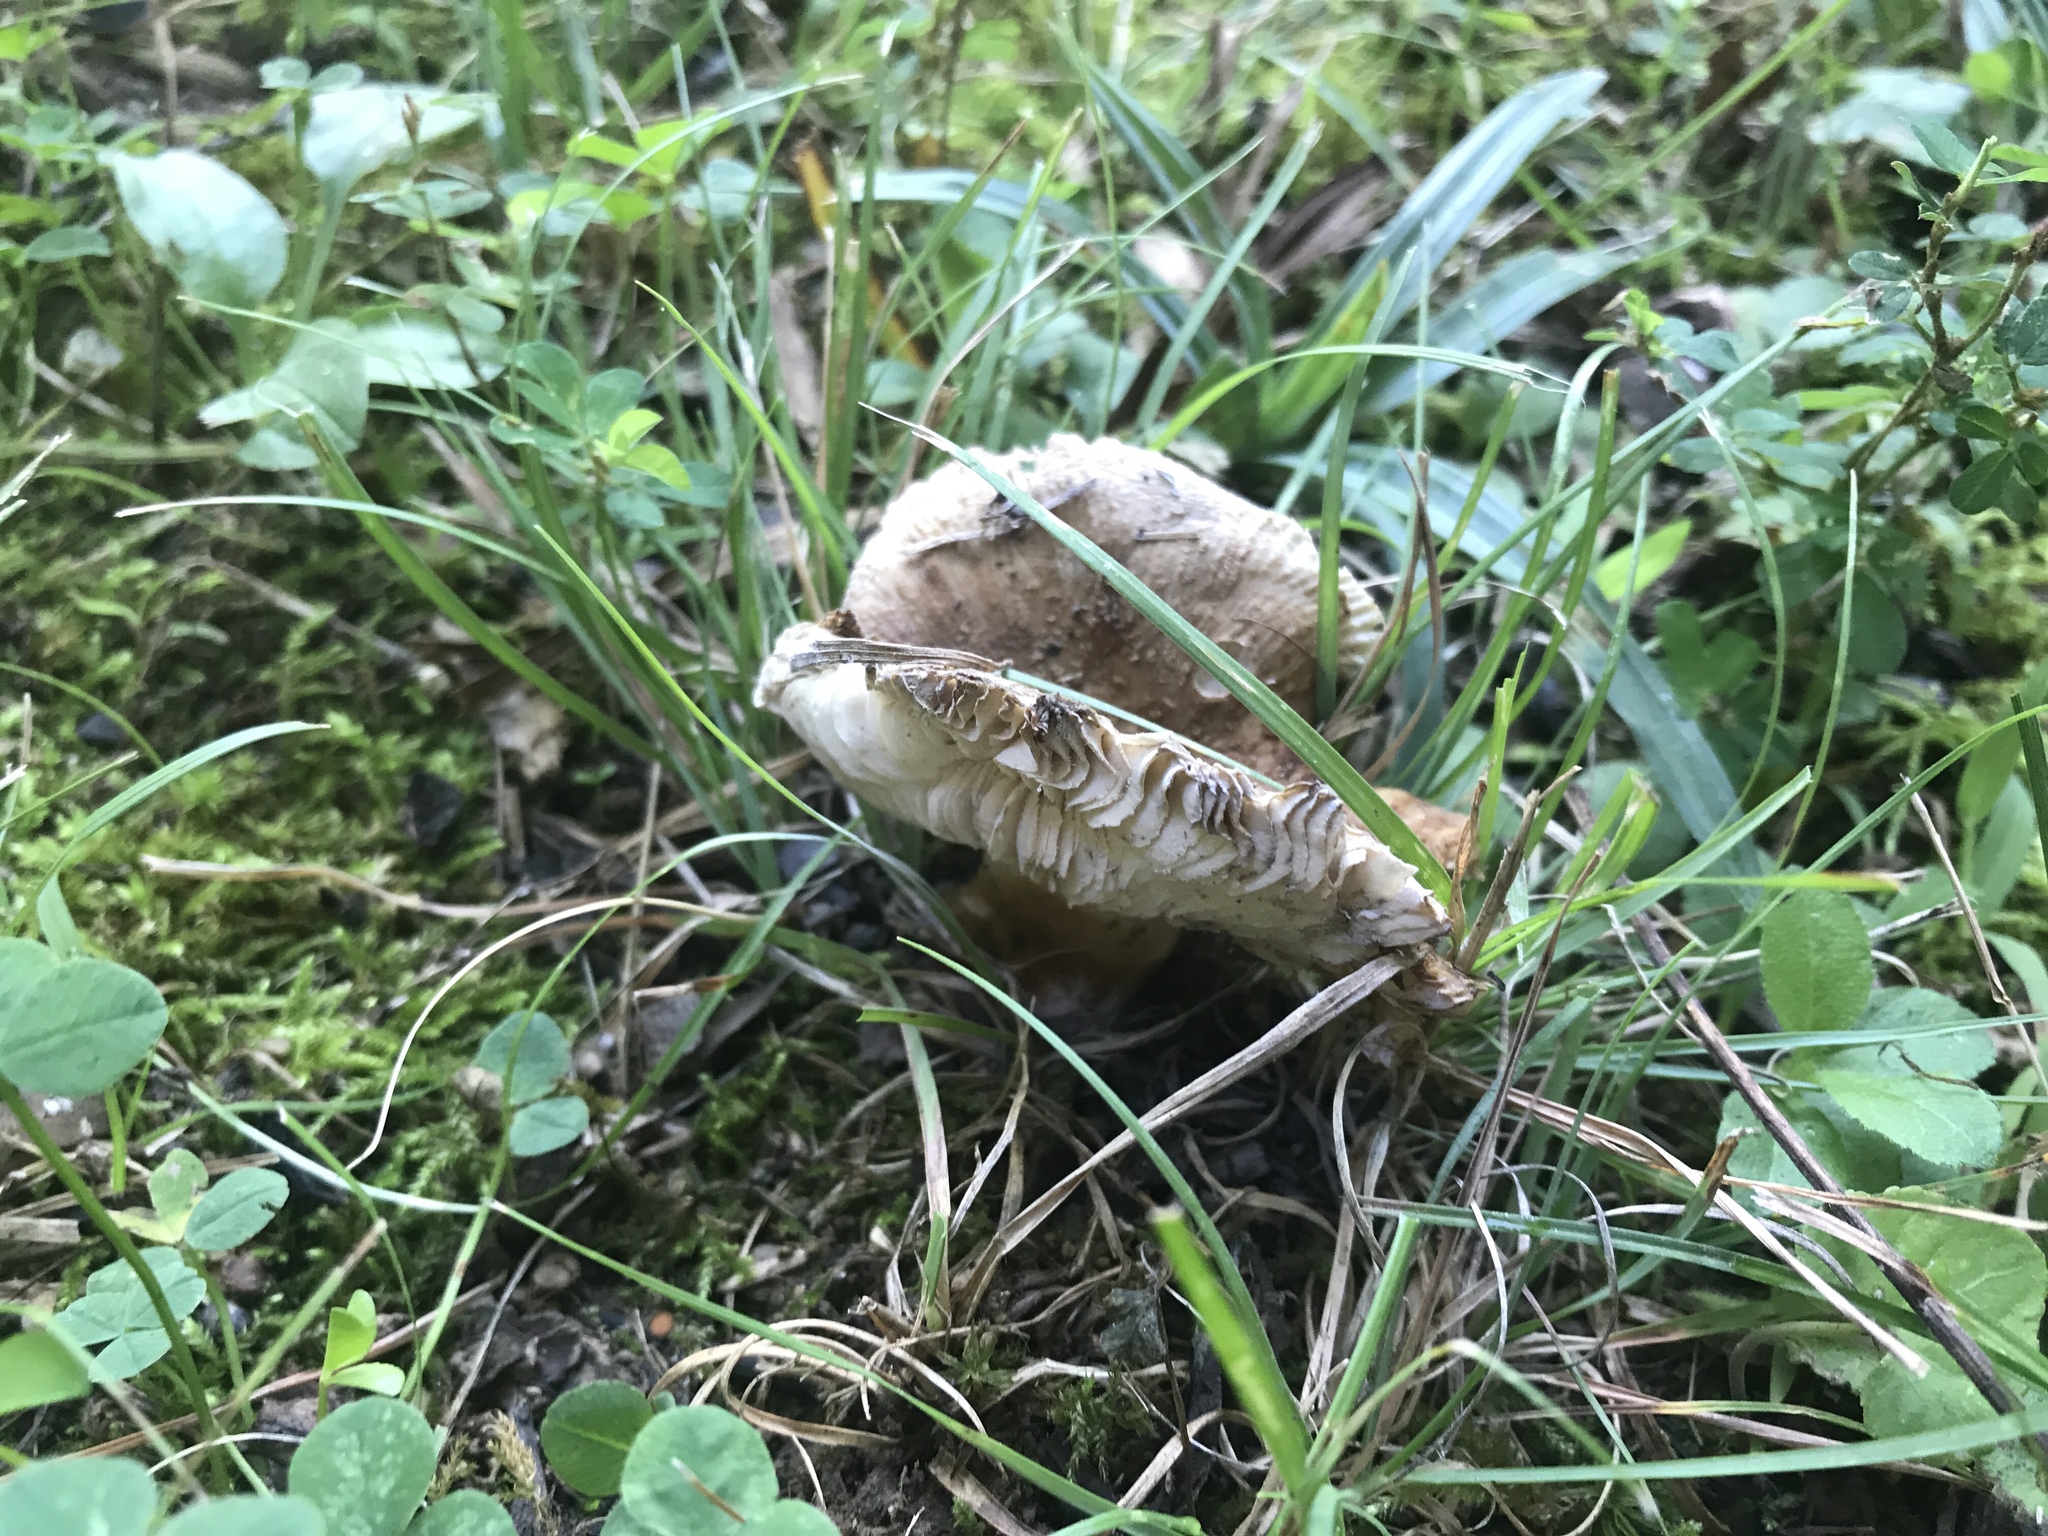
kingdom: Fungi
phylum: Basidiomycota
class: Agaricomycetes
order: Russulales
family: Russulaceae
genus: Russula
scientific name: Russula dissimulans
